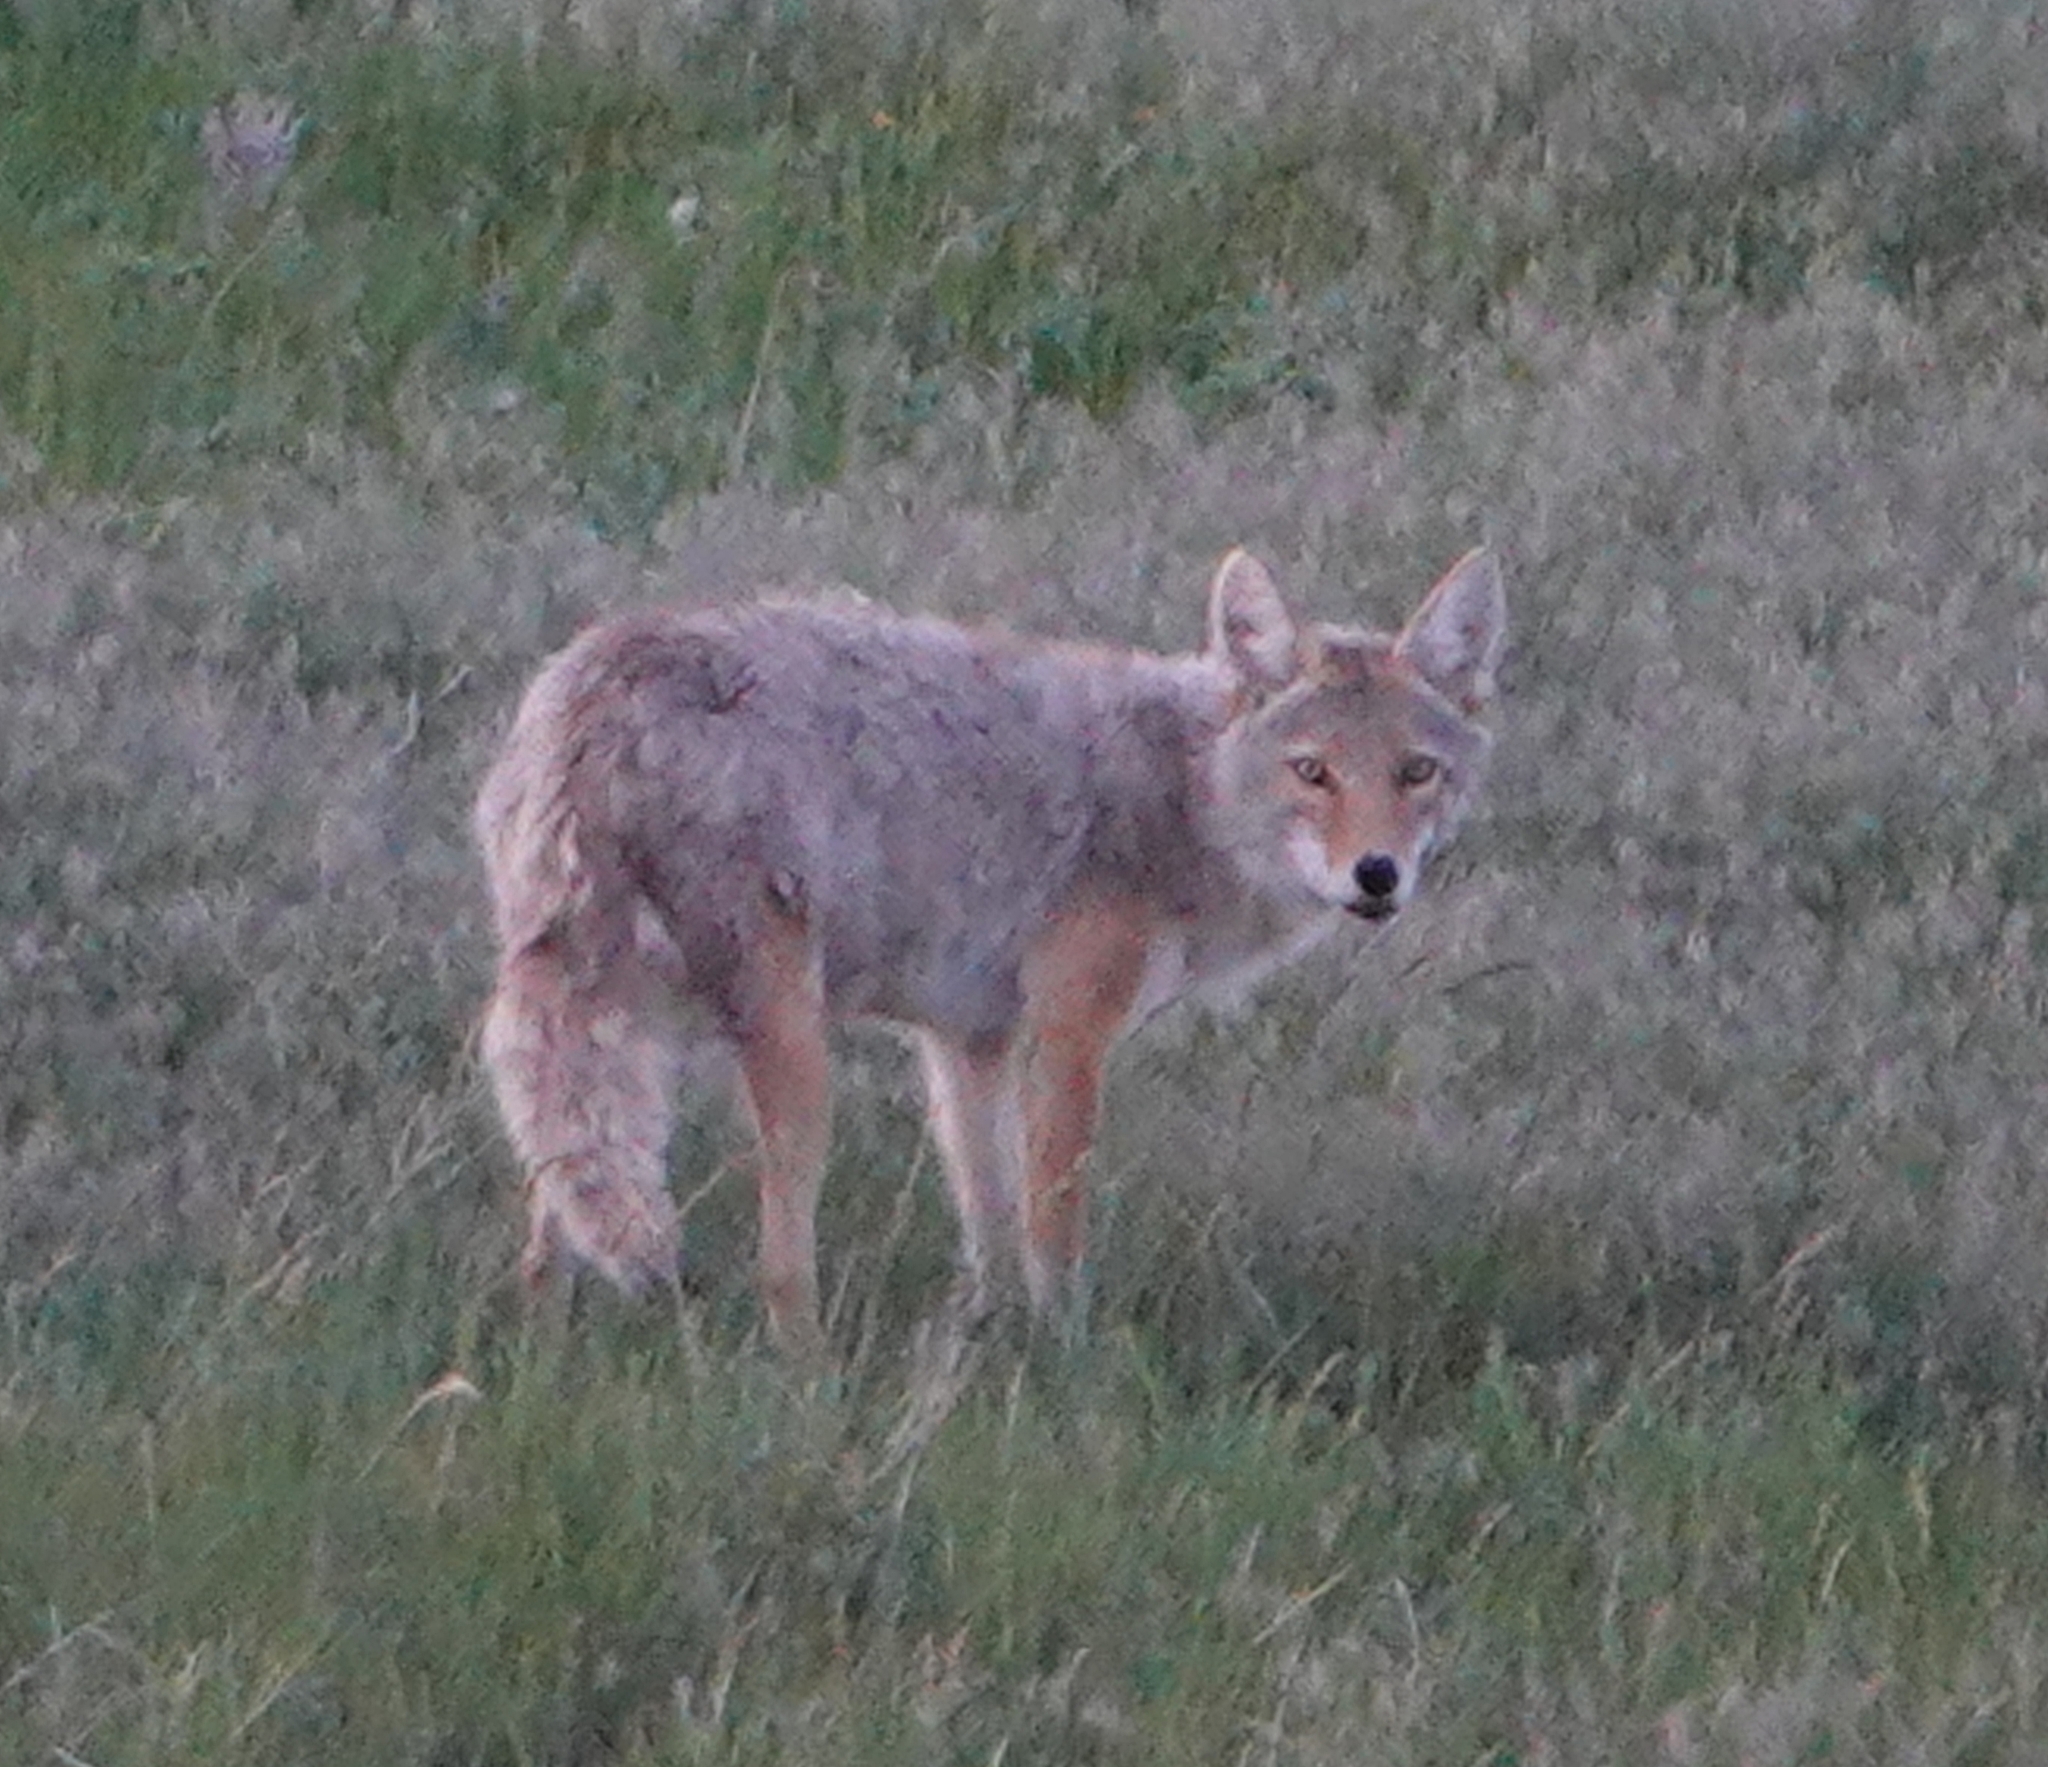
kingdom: Animalia
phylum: Chordata
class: Mammalia
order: Carnivora
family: Canidae
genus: Canis
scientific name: Canis latrans
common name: Coyote
